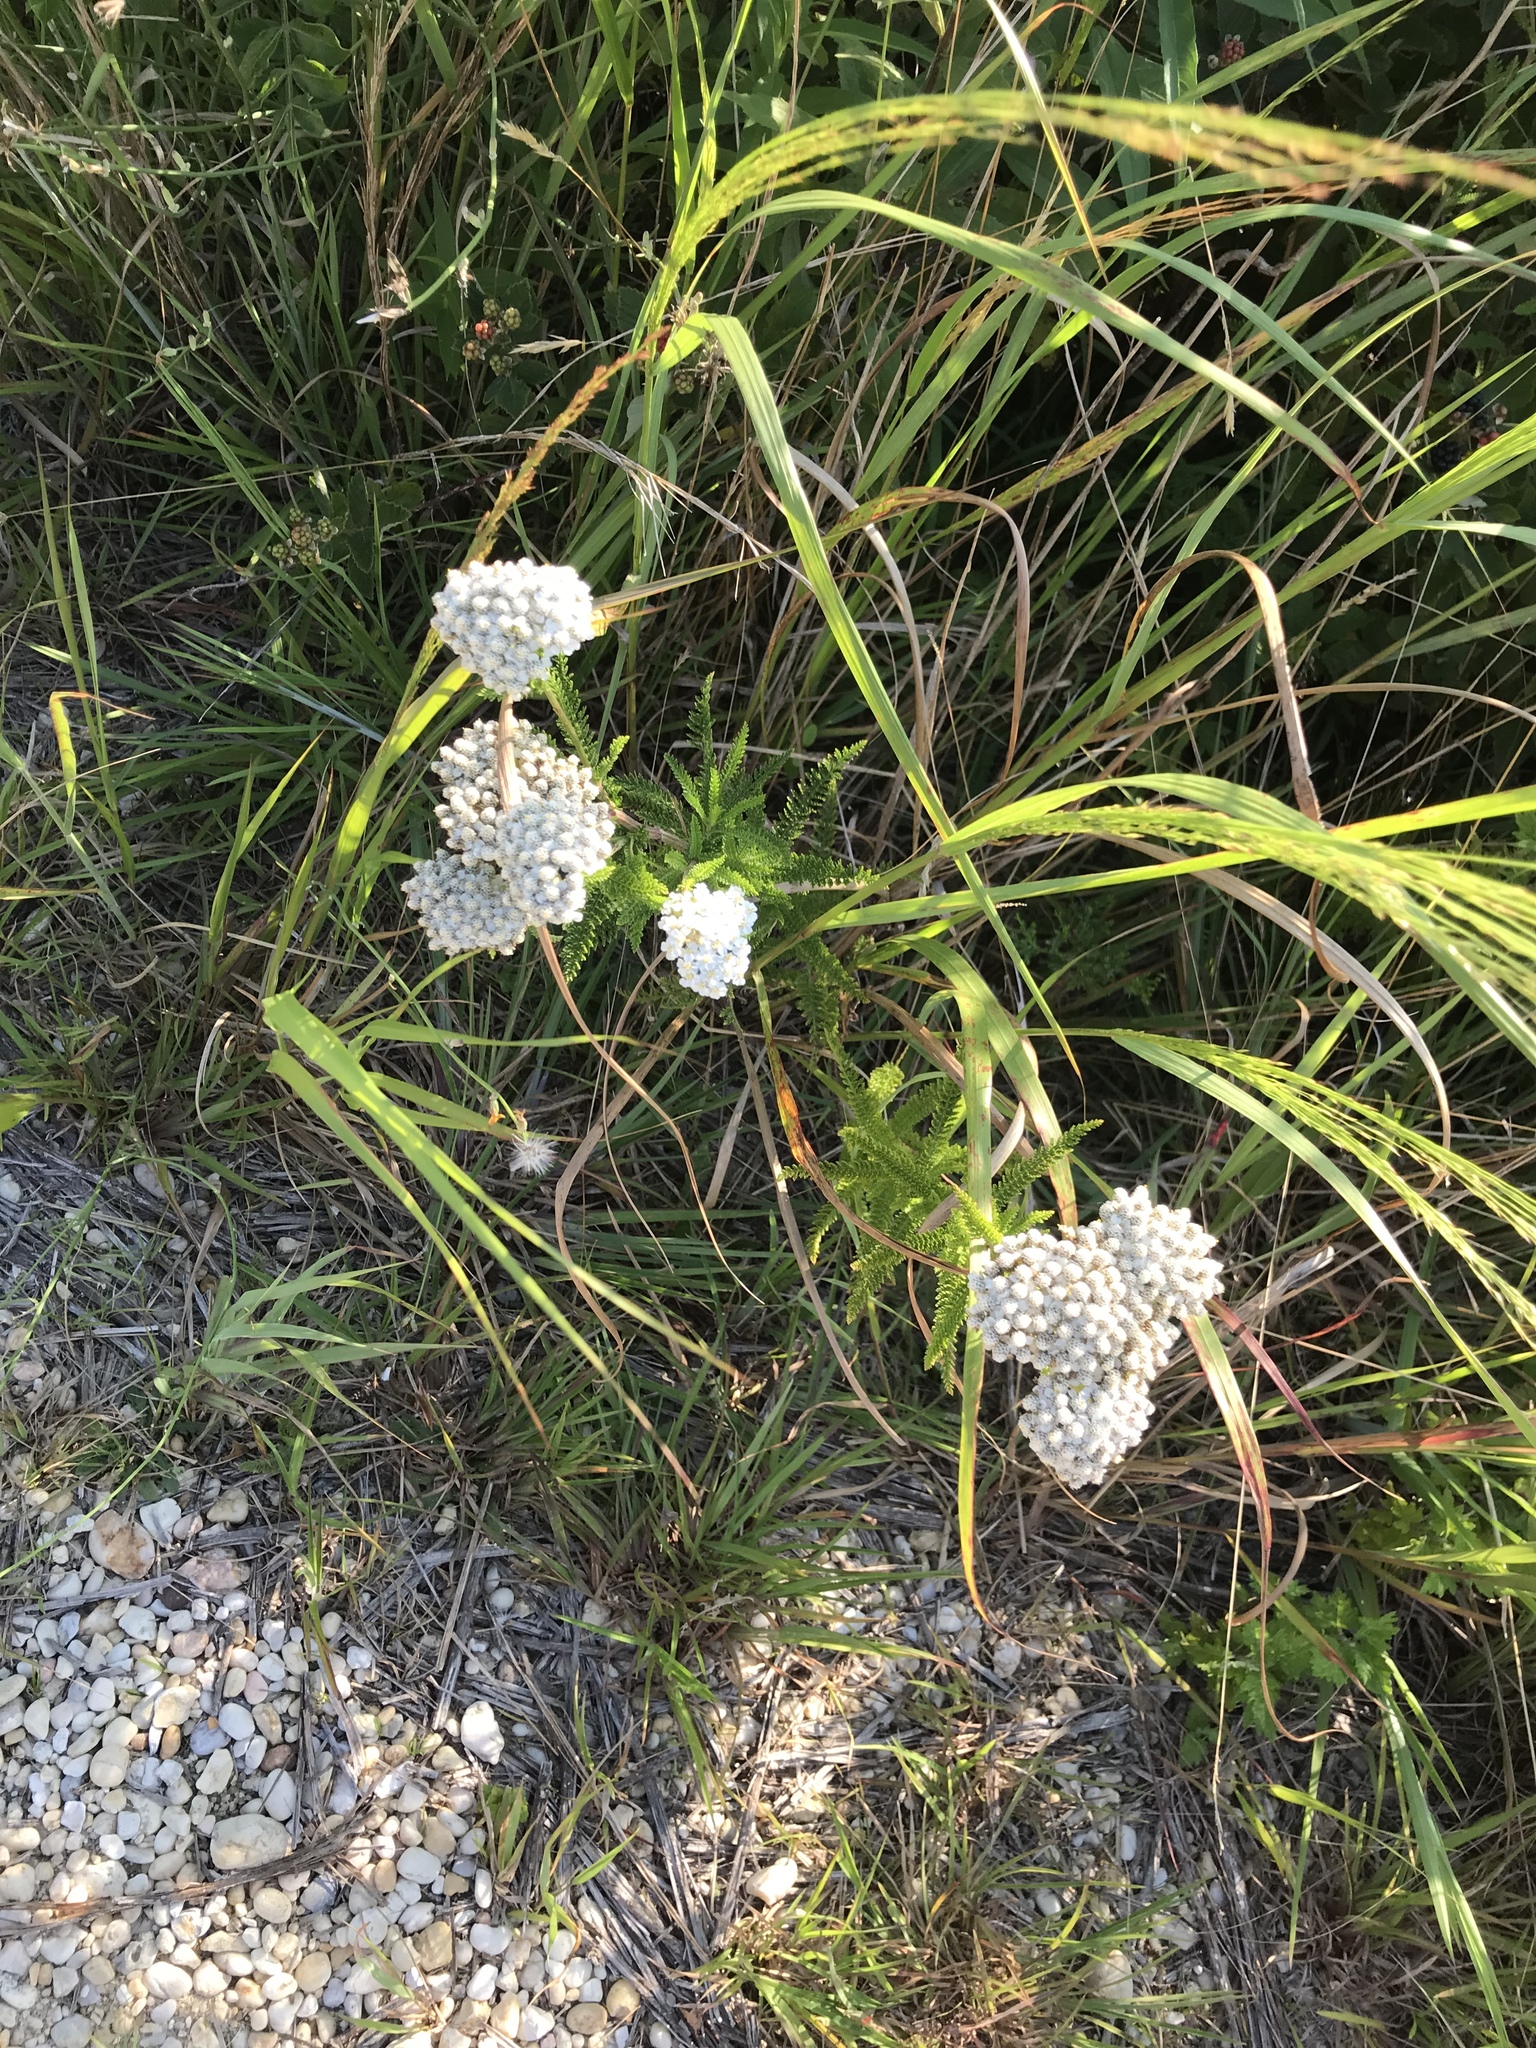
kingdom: Plantae
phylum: Tracheophyta
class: Magnoliopsida
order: Asterales
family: Asteraceae
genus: Achillea
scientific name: Achillea millefolium
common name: Yarrow
